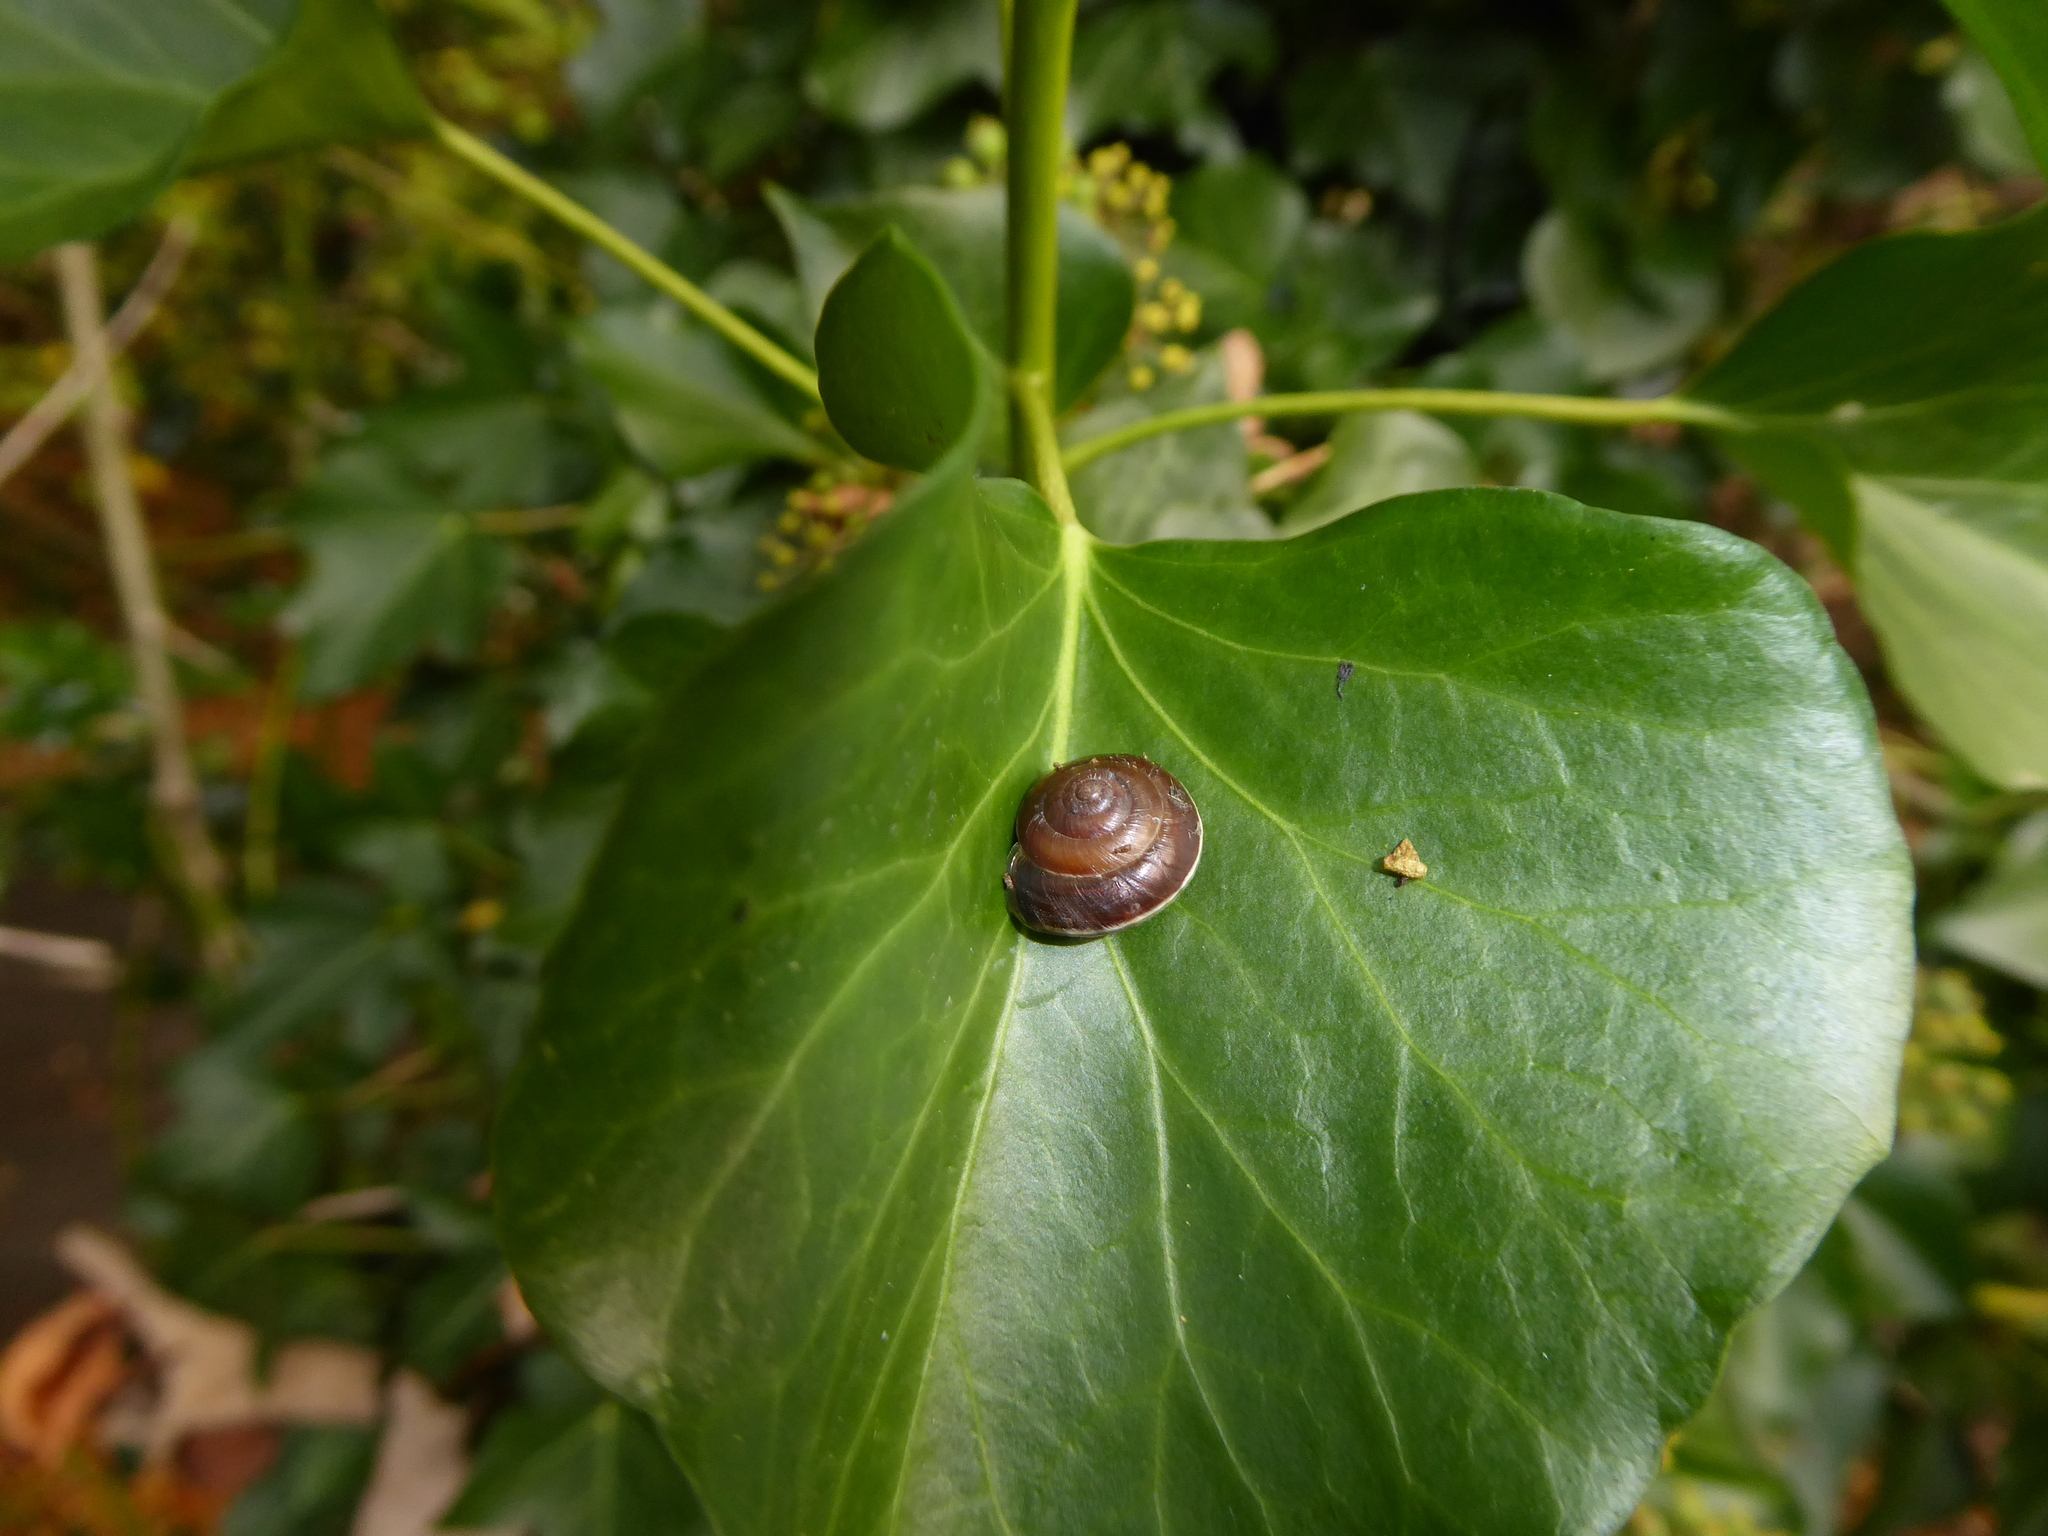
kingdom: Animalia
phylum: Mollusca
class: Gastropoda
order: Stylommatophora
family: Hygromiidae
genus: Hygromia
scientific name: Hygromia cinctella
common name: Girdled snail
